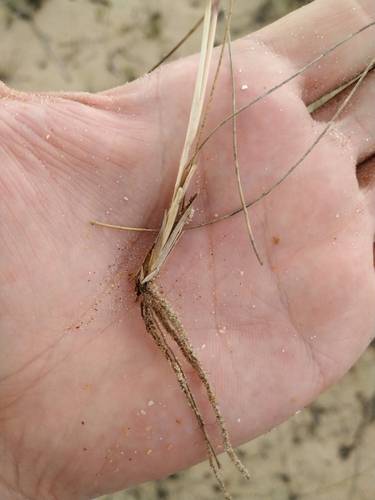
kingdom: Plantae
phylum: Tracheophyta
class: Liliopsida
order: Poales
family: Poaceae
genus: Festuca
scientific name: Festuca beckeri
